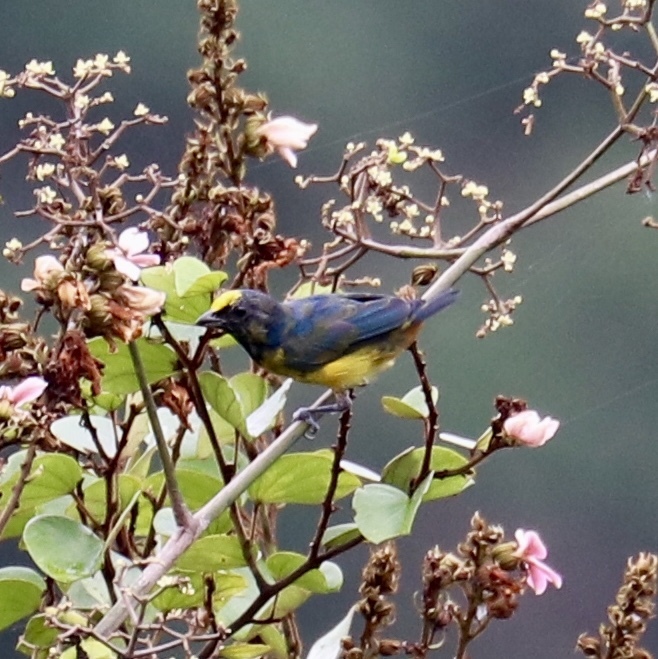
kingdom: Animalia
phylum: Chordata
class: Aves
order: Passeriformes
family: Fringillidae
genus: Euphonia
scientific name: Euphonia fulvicrissa
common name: Fulvous-vented euphonia
